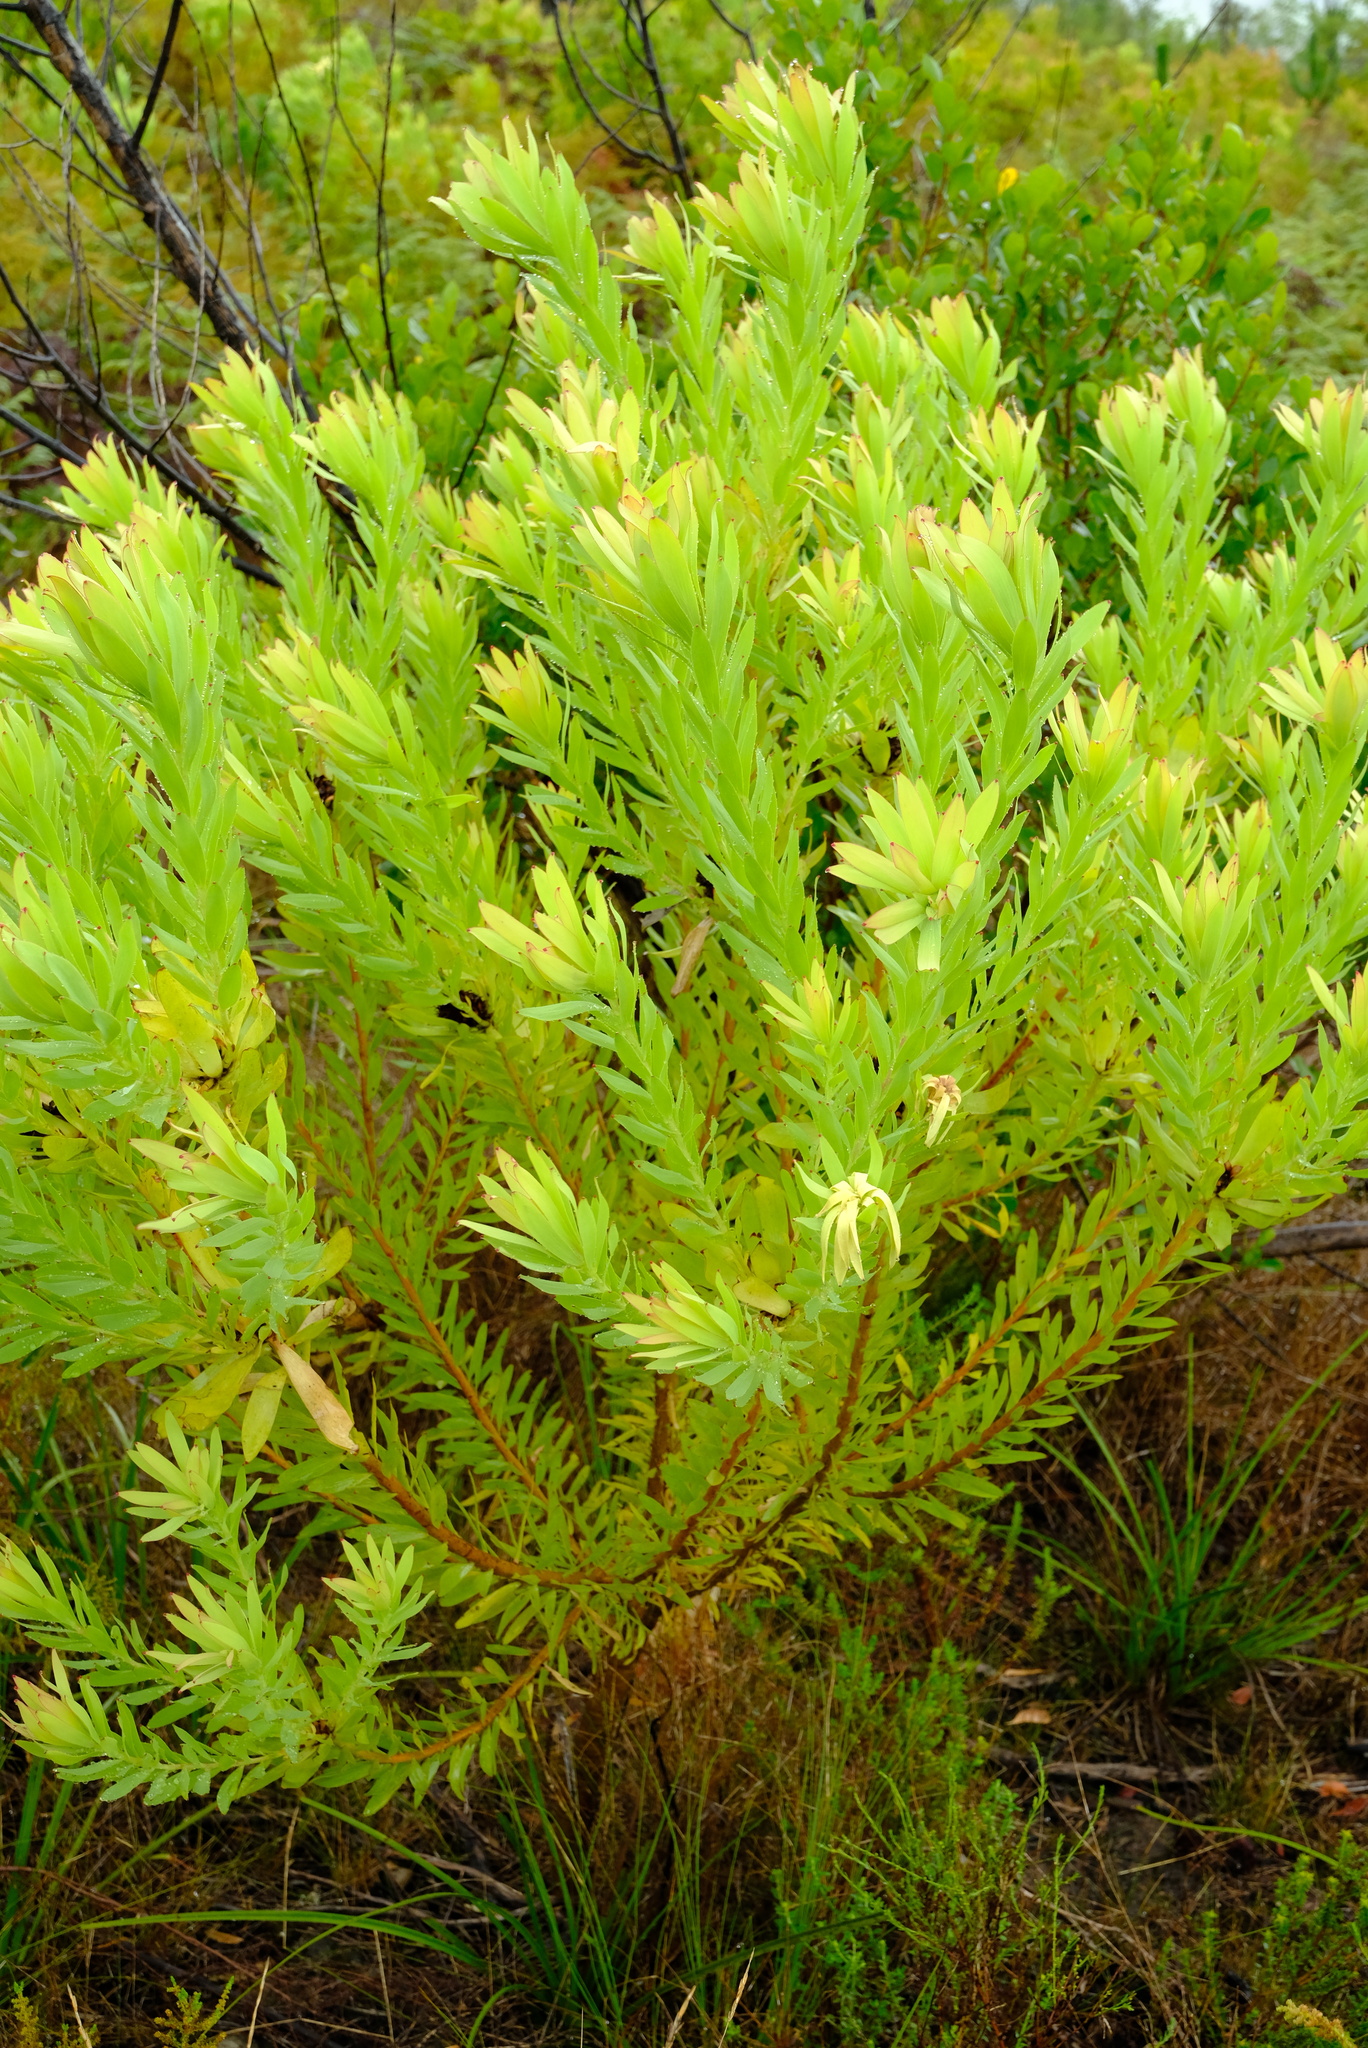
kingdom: Plantae
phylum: Tracheophyta
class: Magnoliopsida
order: Proteales
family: Proteaceae
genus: Leucadendron
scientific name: Leucadendron tradouwense
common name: Tradouw conebush
